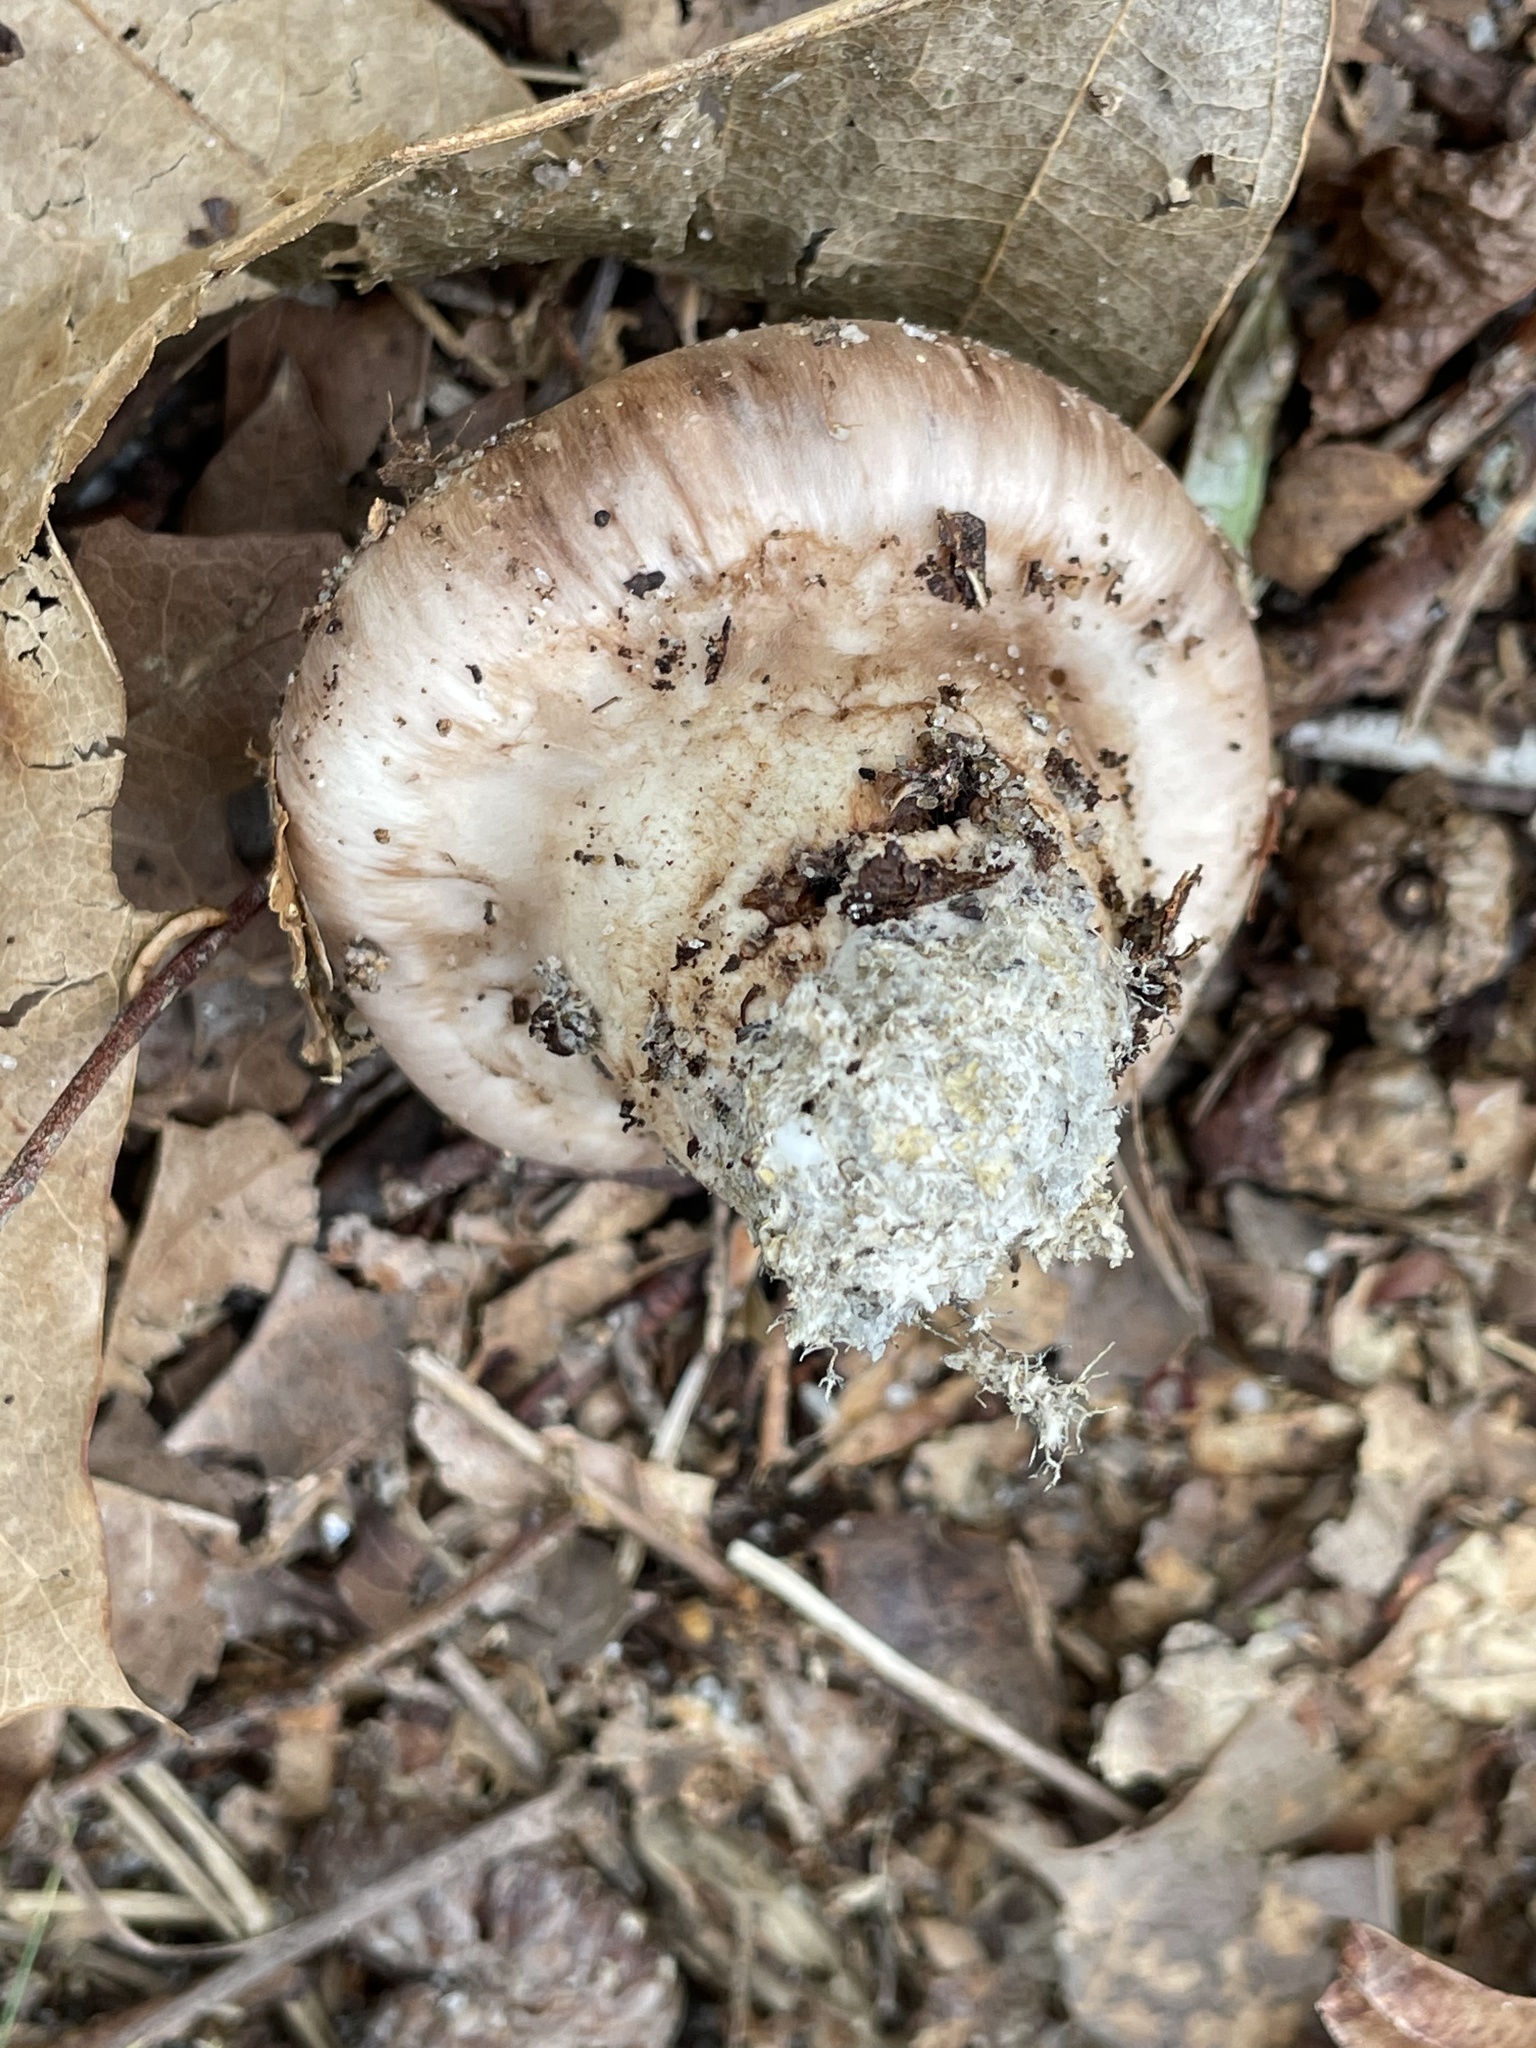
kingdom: Fungi
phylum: Basidiomycota
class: Agaricomycetes
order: Agaricales
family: Tricholomataceae
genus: Tricholoma
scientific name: Tricholoma caligatum
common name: True booted knight
